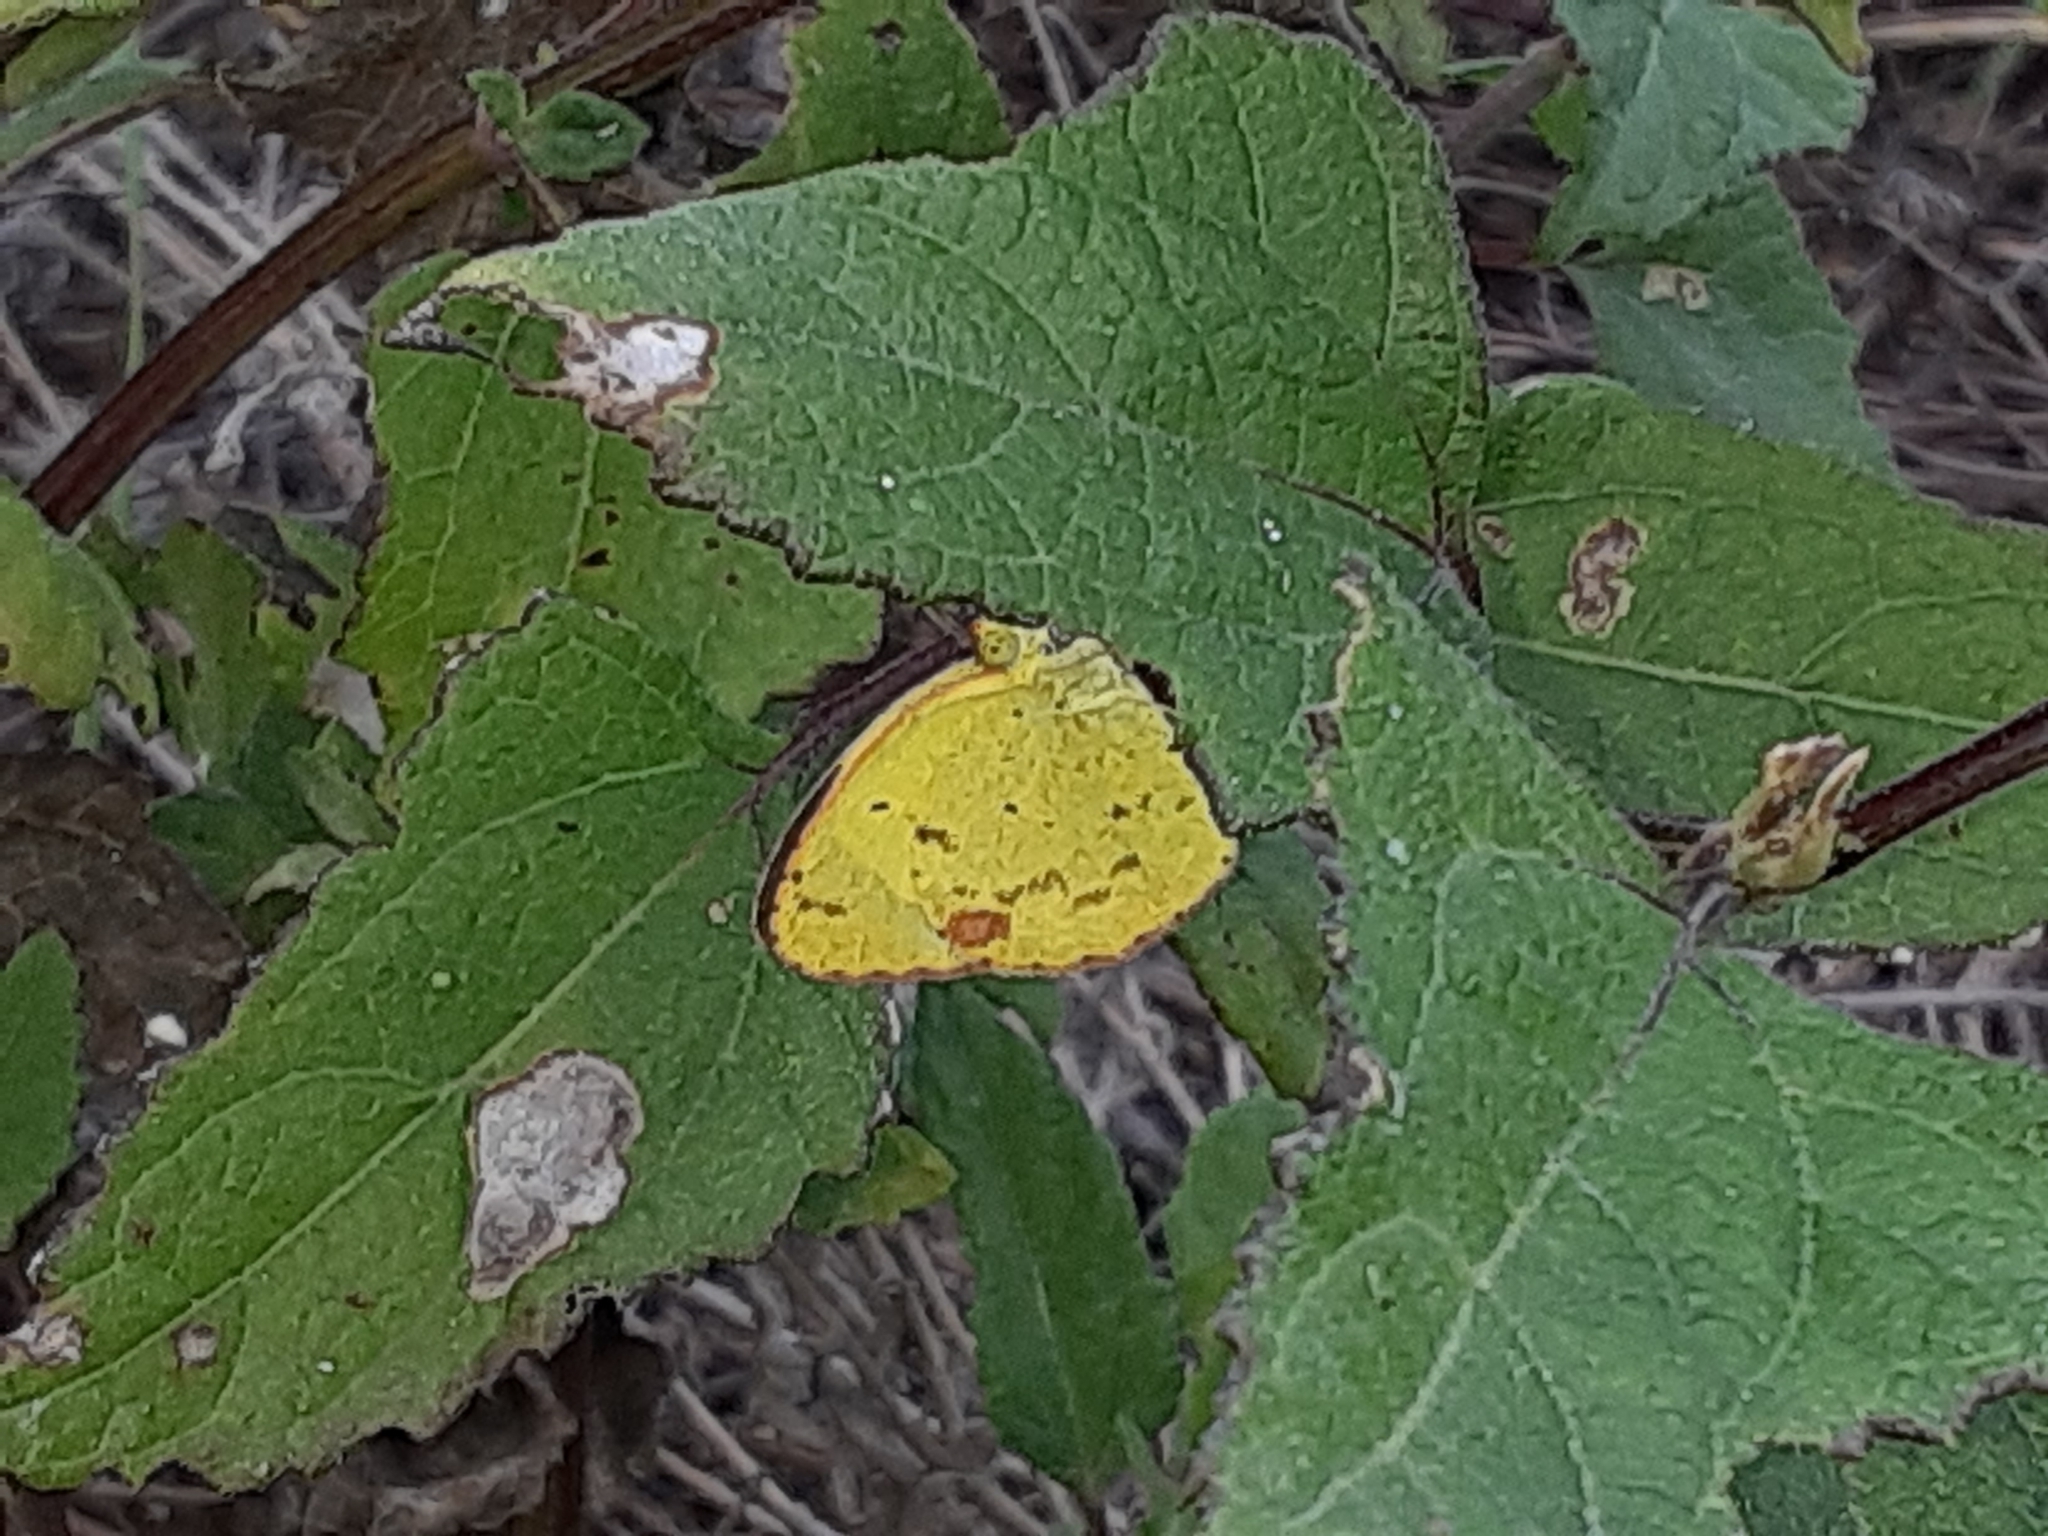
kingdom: Animalia
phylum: Arthropoda
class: Insecta
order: Lepidoptera
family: Pieridae
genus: Pyrisitia
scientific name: Pyrisitia lisa
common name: Little yellow
